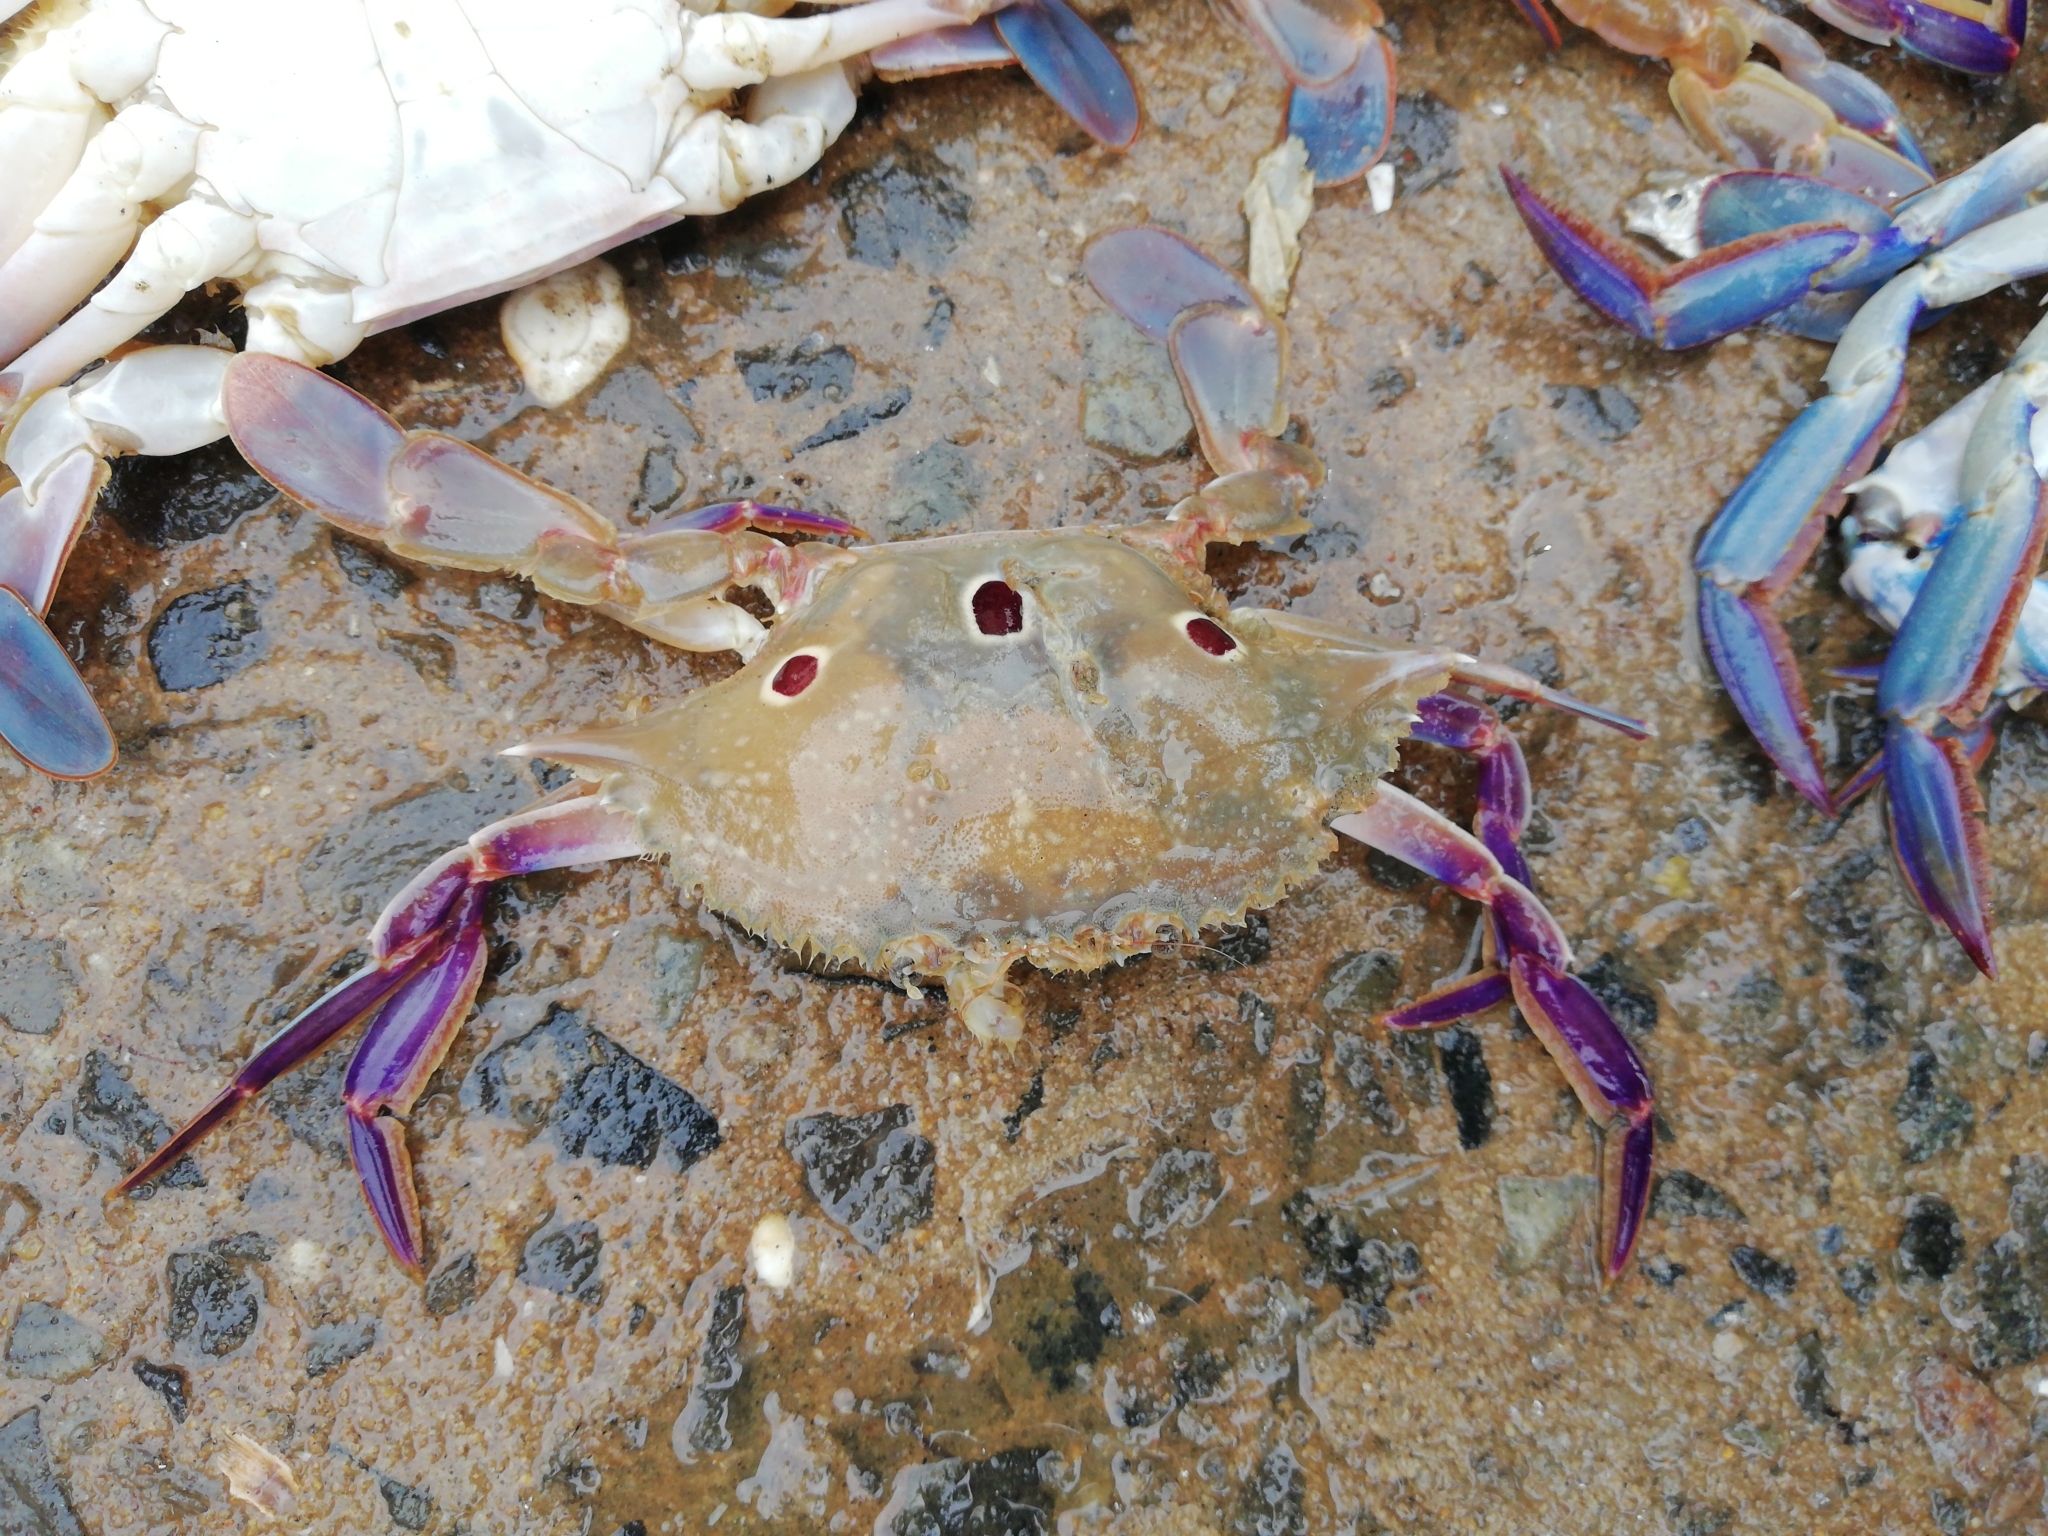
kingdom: Animalia
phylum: Arthropoda
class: Malacostraca
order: Decapoda
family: Portunidae
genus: Portunus
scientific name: Portunus sanguinolentus
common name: Blood-spotted swimming crab
